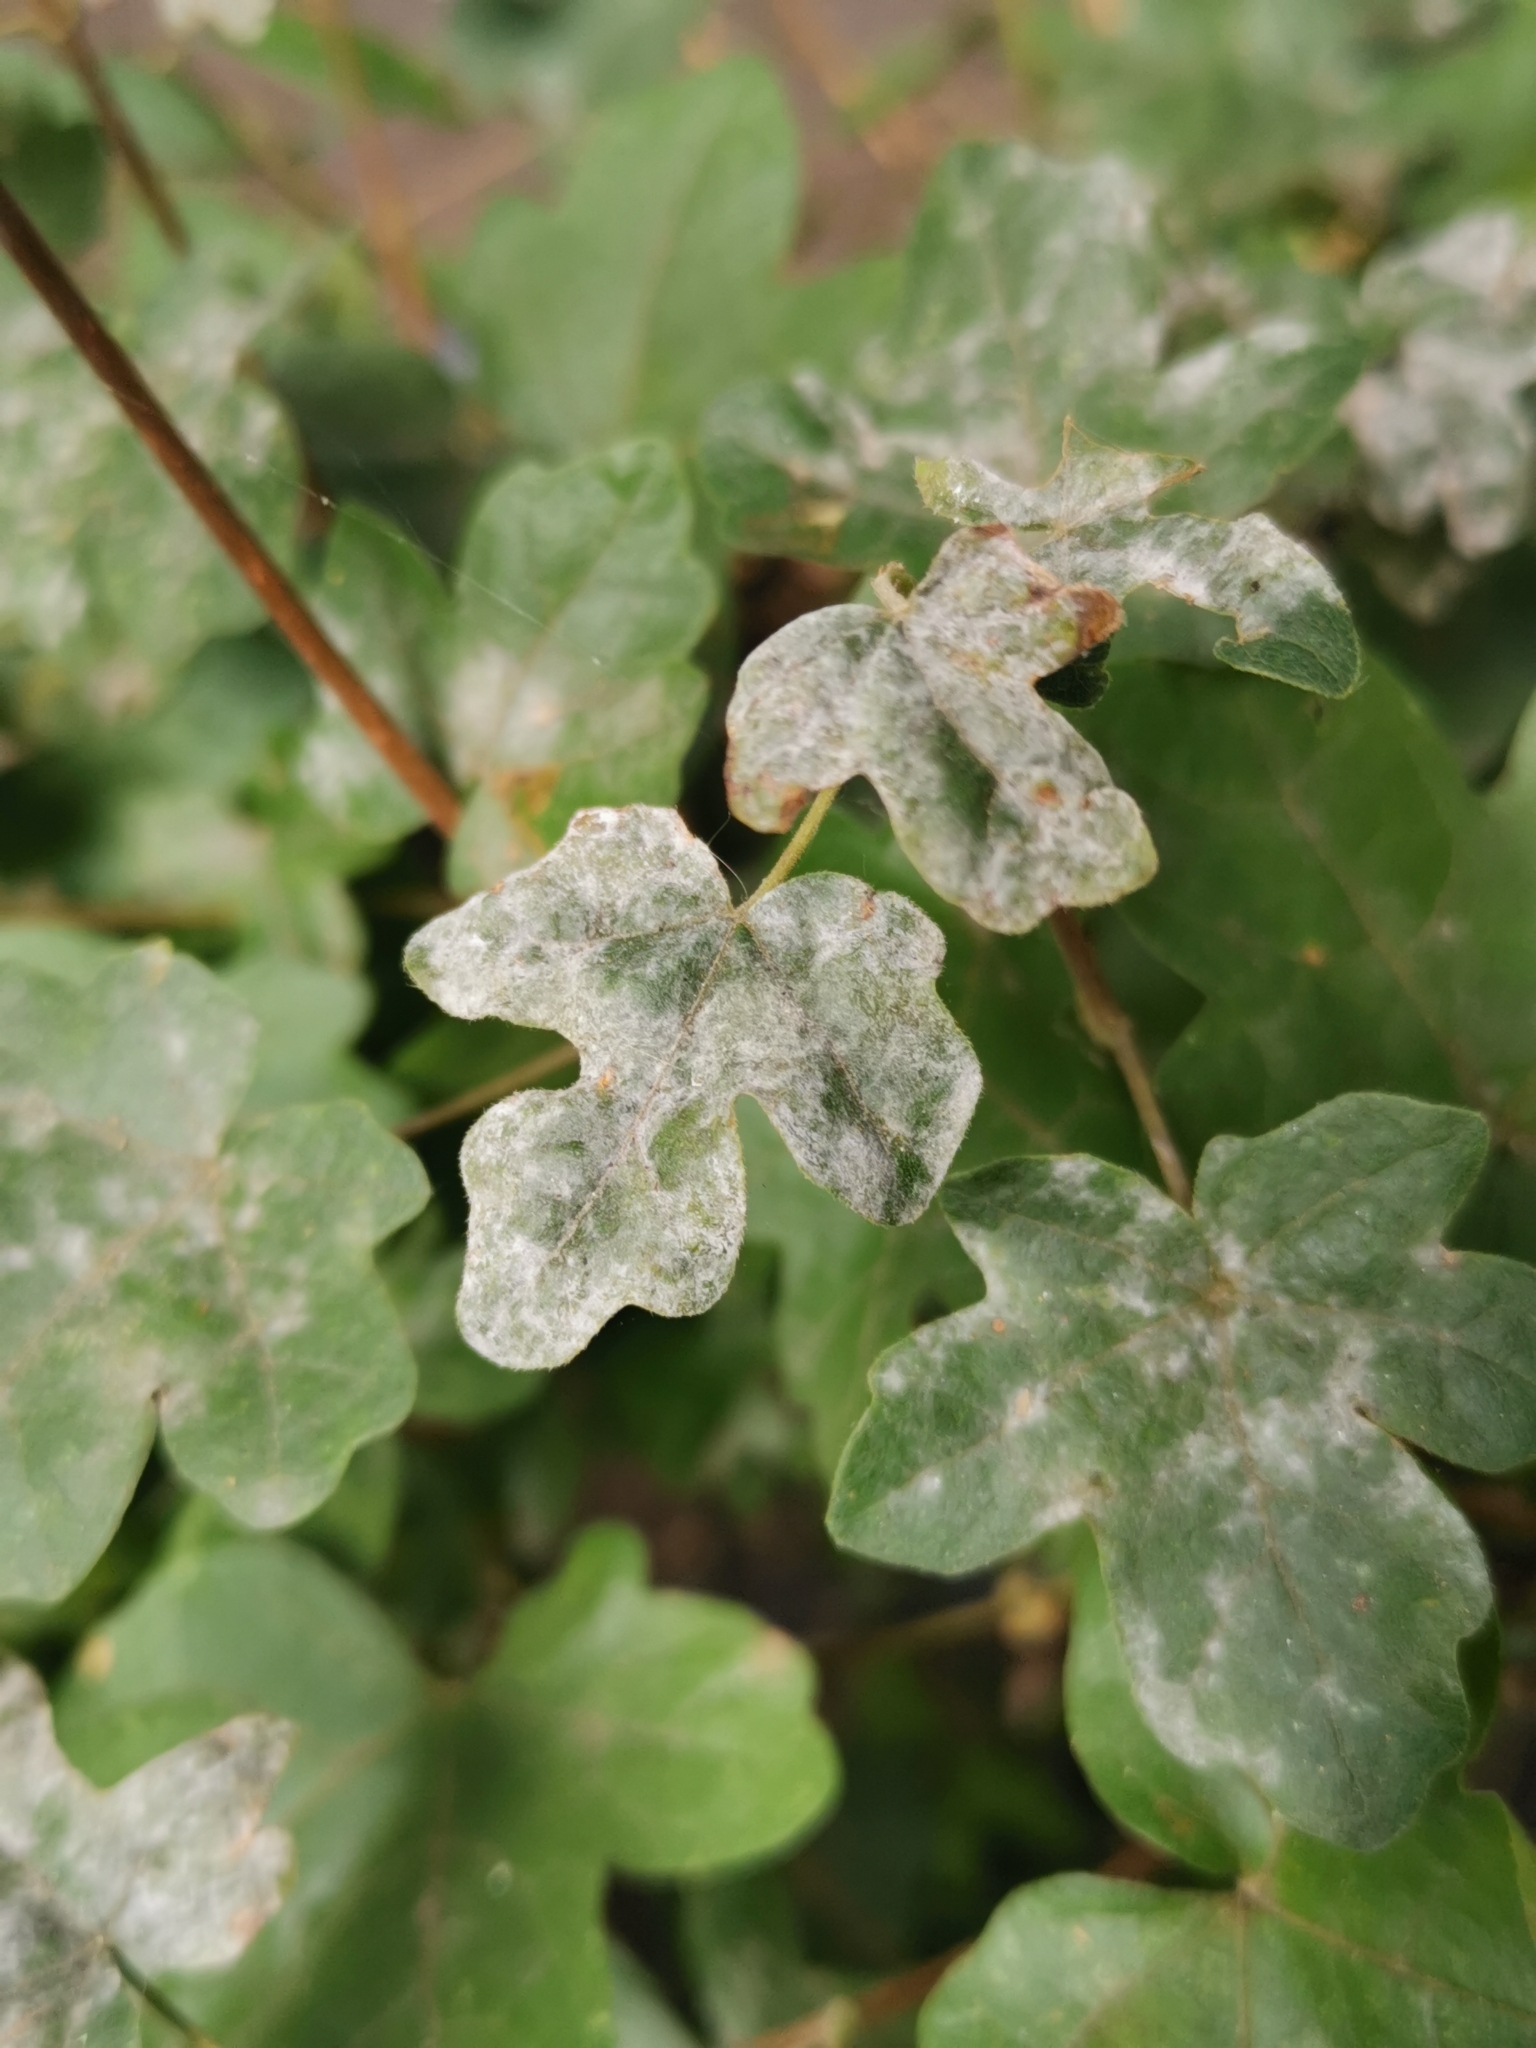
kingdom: Fungi
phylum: Ascomycota
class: Leotiomycetes
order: Helotiales
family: Erysiphaceae
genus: Sawadaea
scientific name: Sawadaea bicornis
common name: Maple mildew
